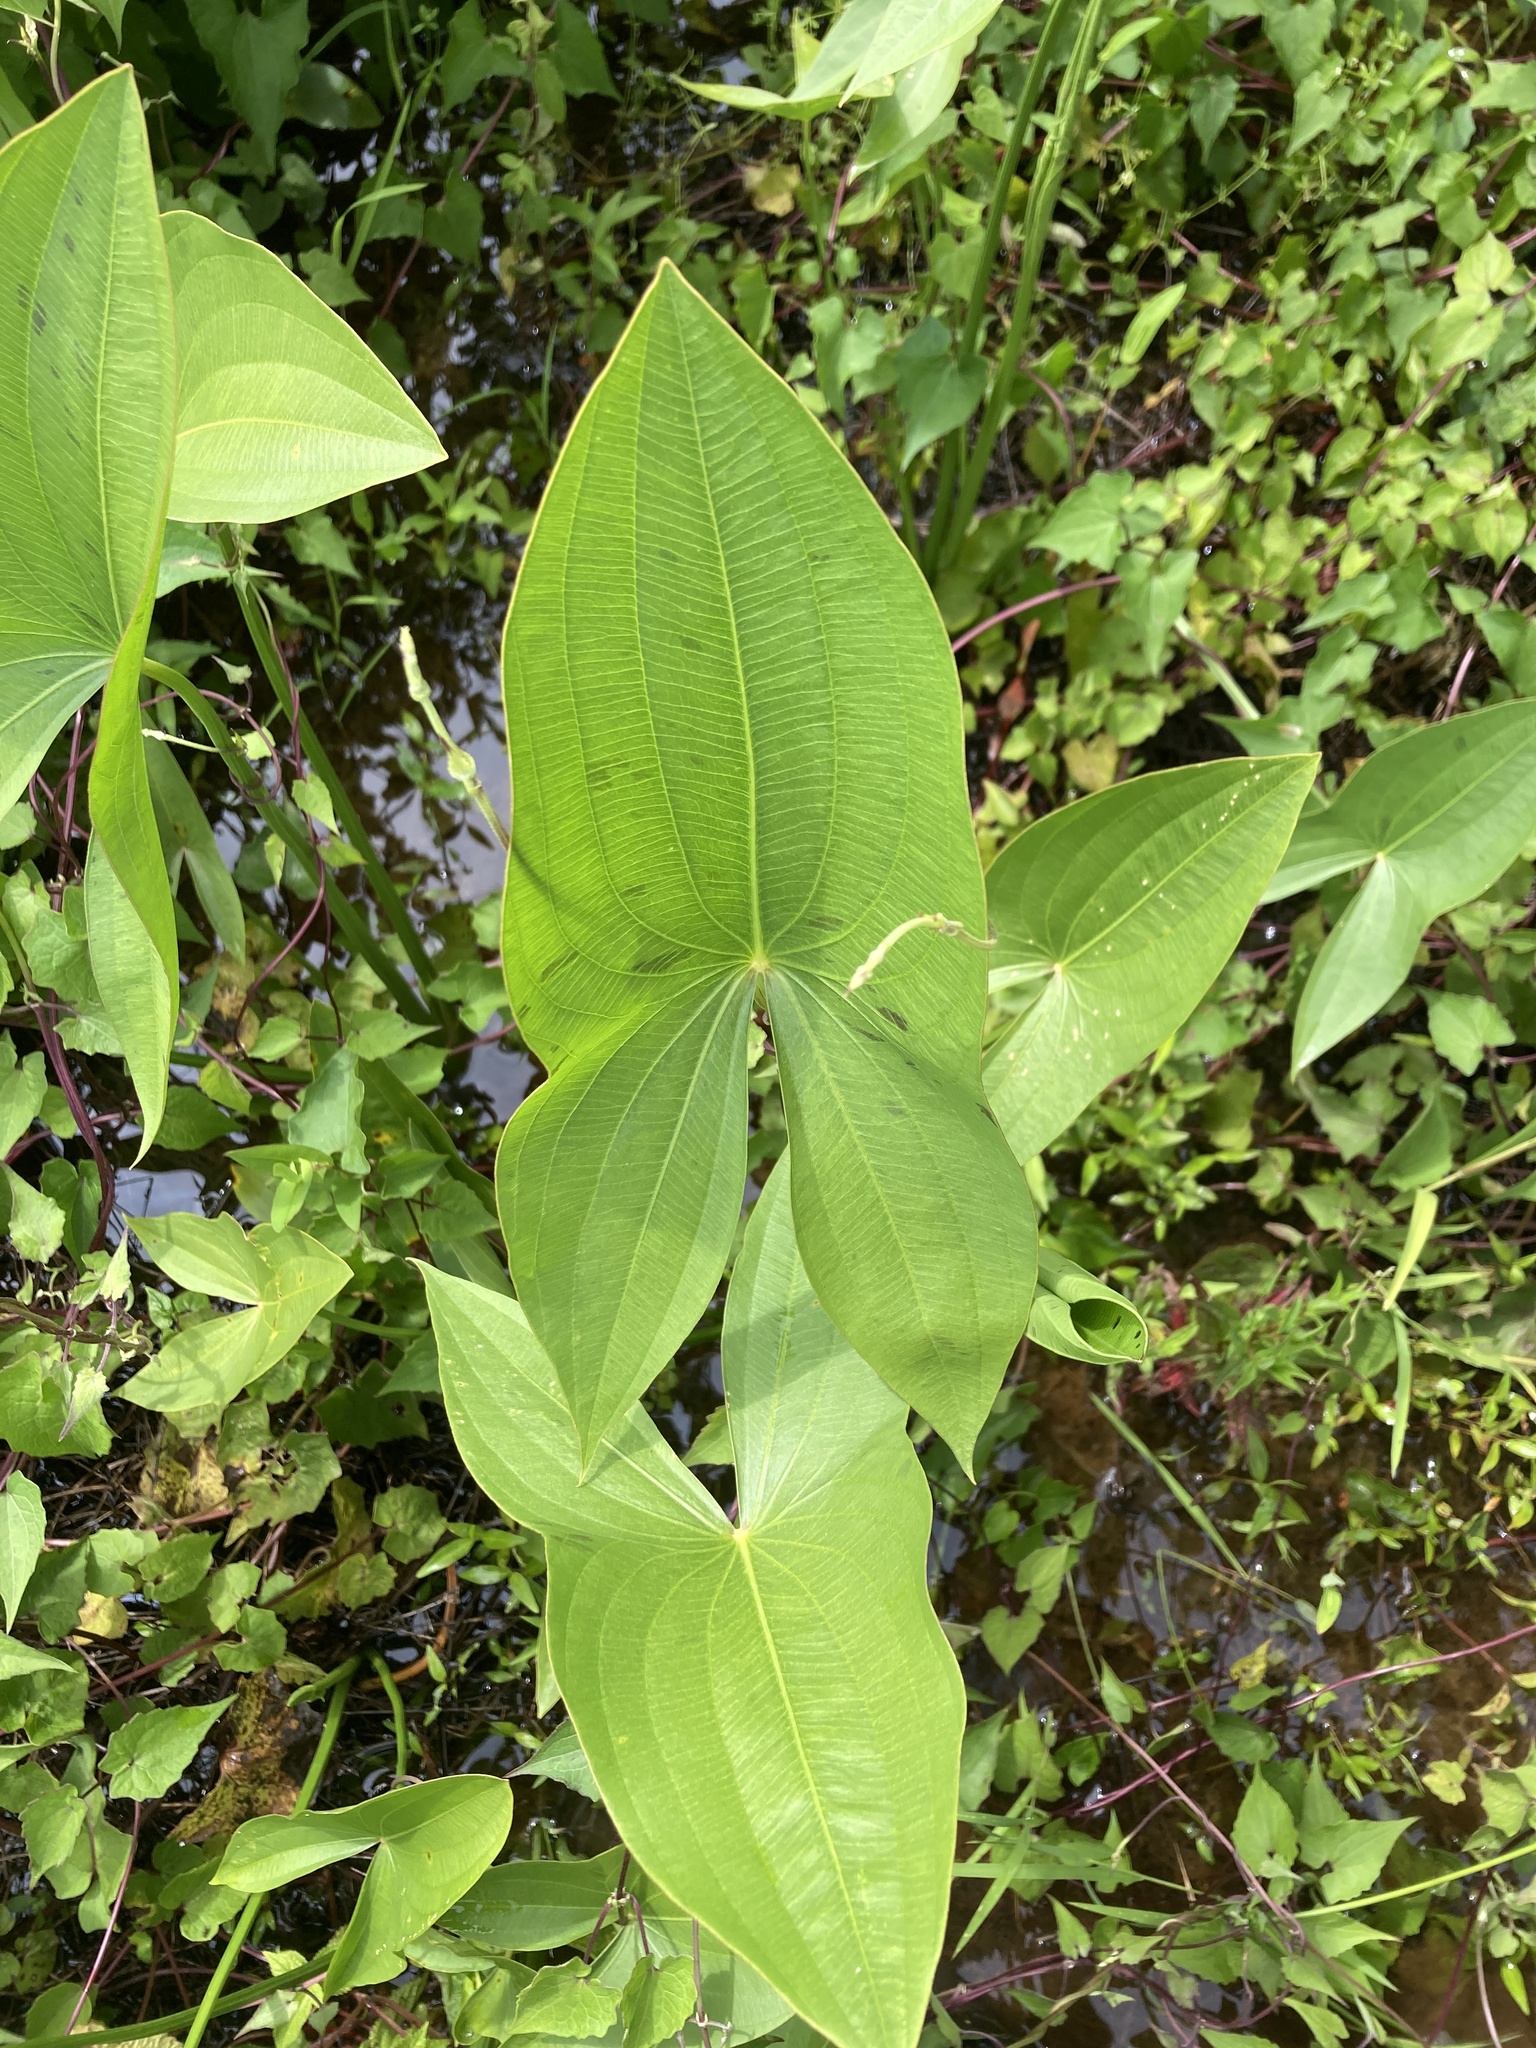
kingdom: Plantae
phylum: Tracheophyta
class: Liliopsida
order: Alismatales
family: Alismataceae
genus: Sagittaria
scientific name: Sagittaria latifolia
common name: Duck-potato
